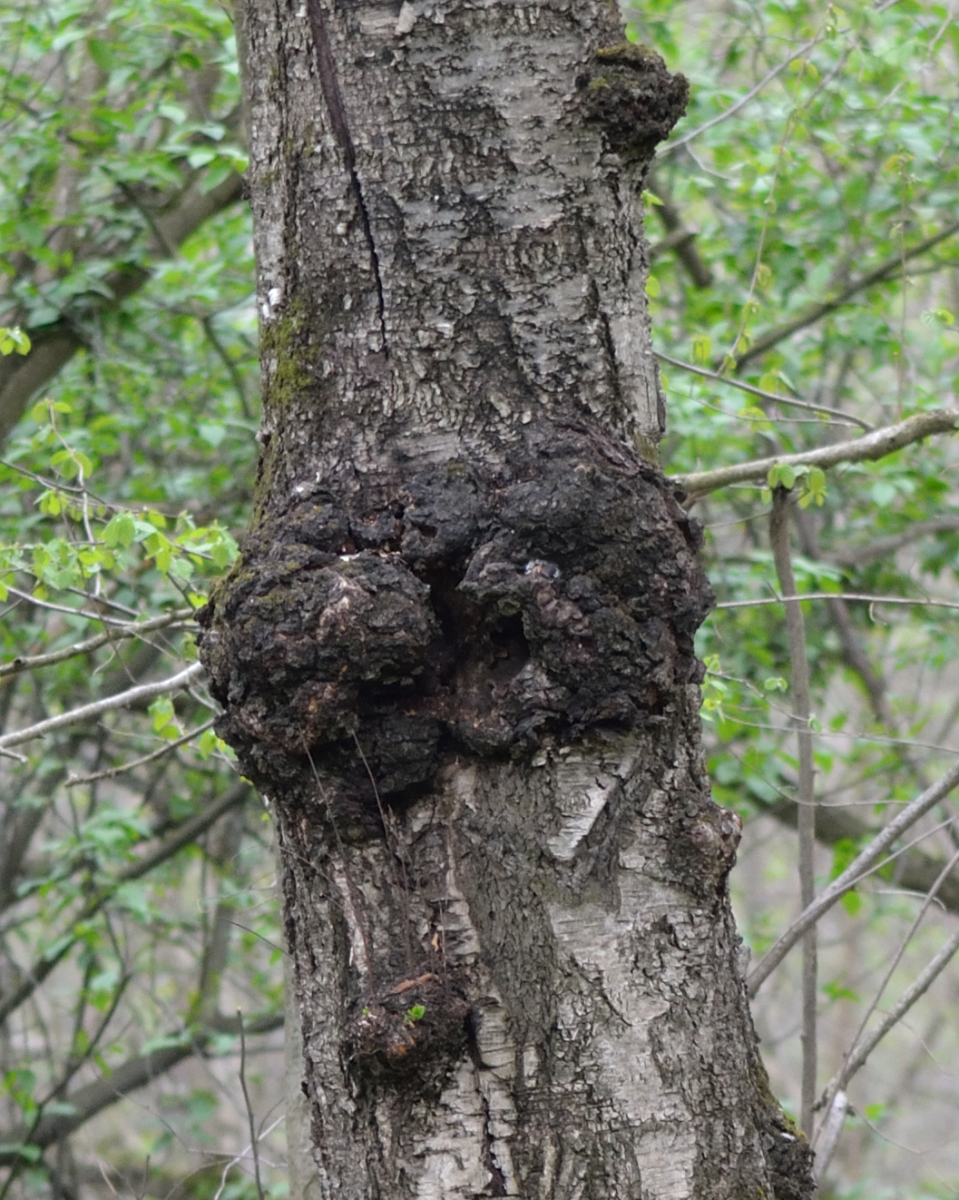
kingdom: Bacteria
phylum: Proteobacteria
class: Alphaproteobacteria
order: Rhizobiales
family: Rhizobiaceae
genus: Rhizobium
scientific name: Rhizobium Agrobacterium radiobacter
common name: Bacterial crown gall
